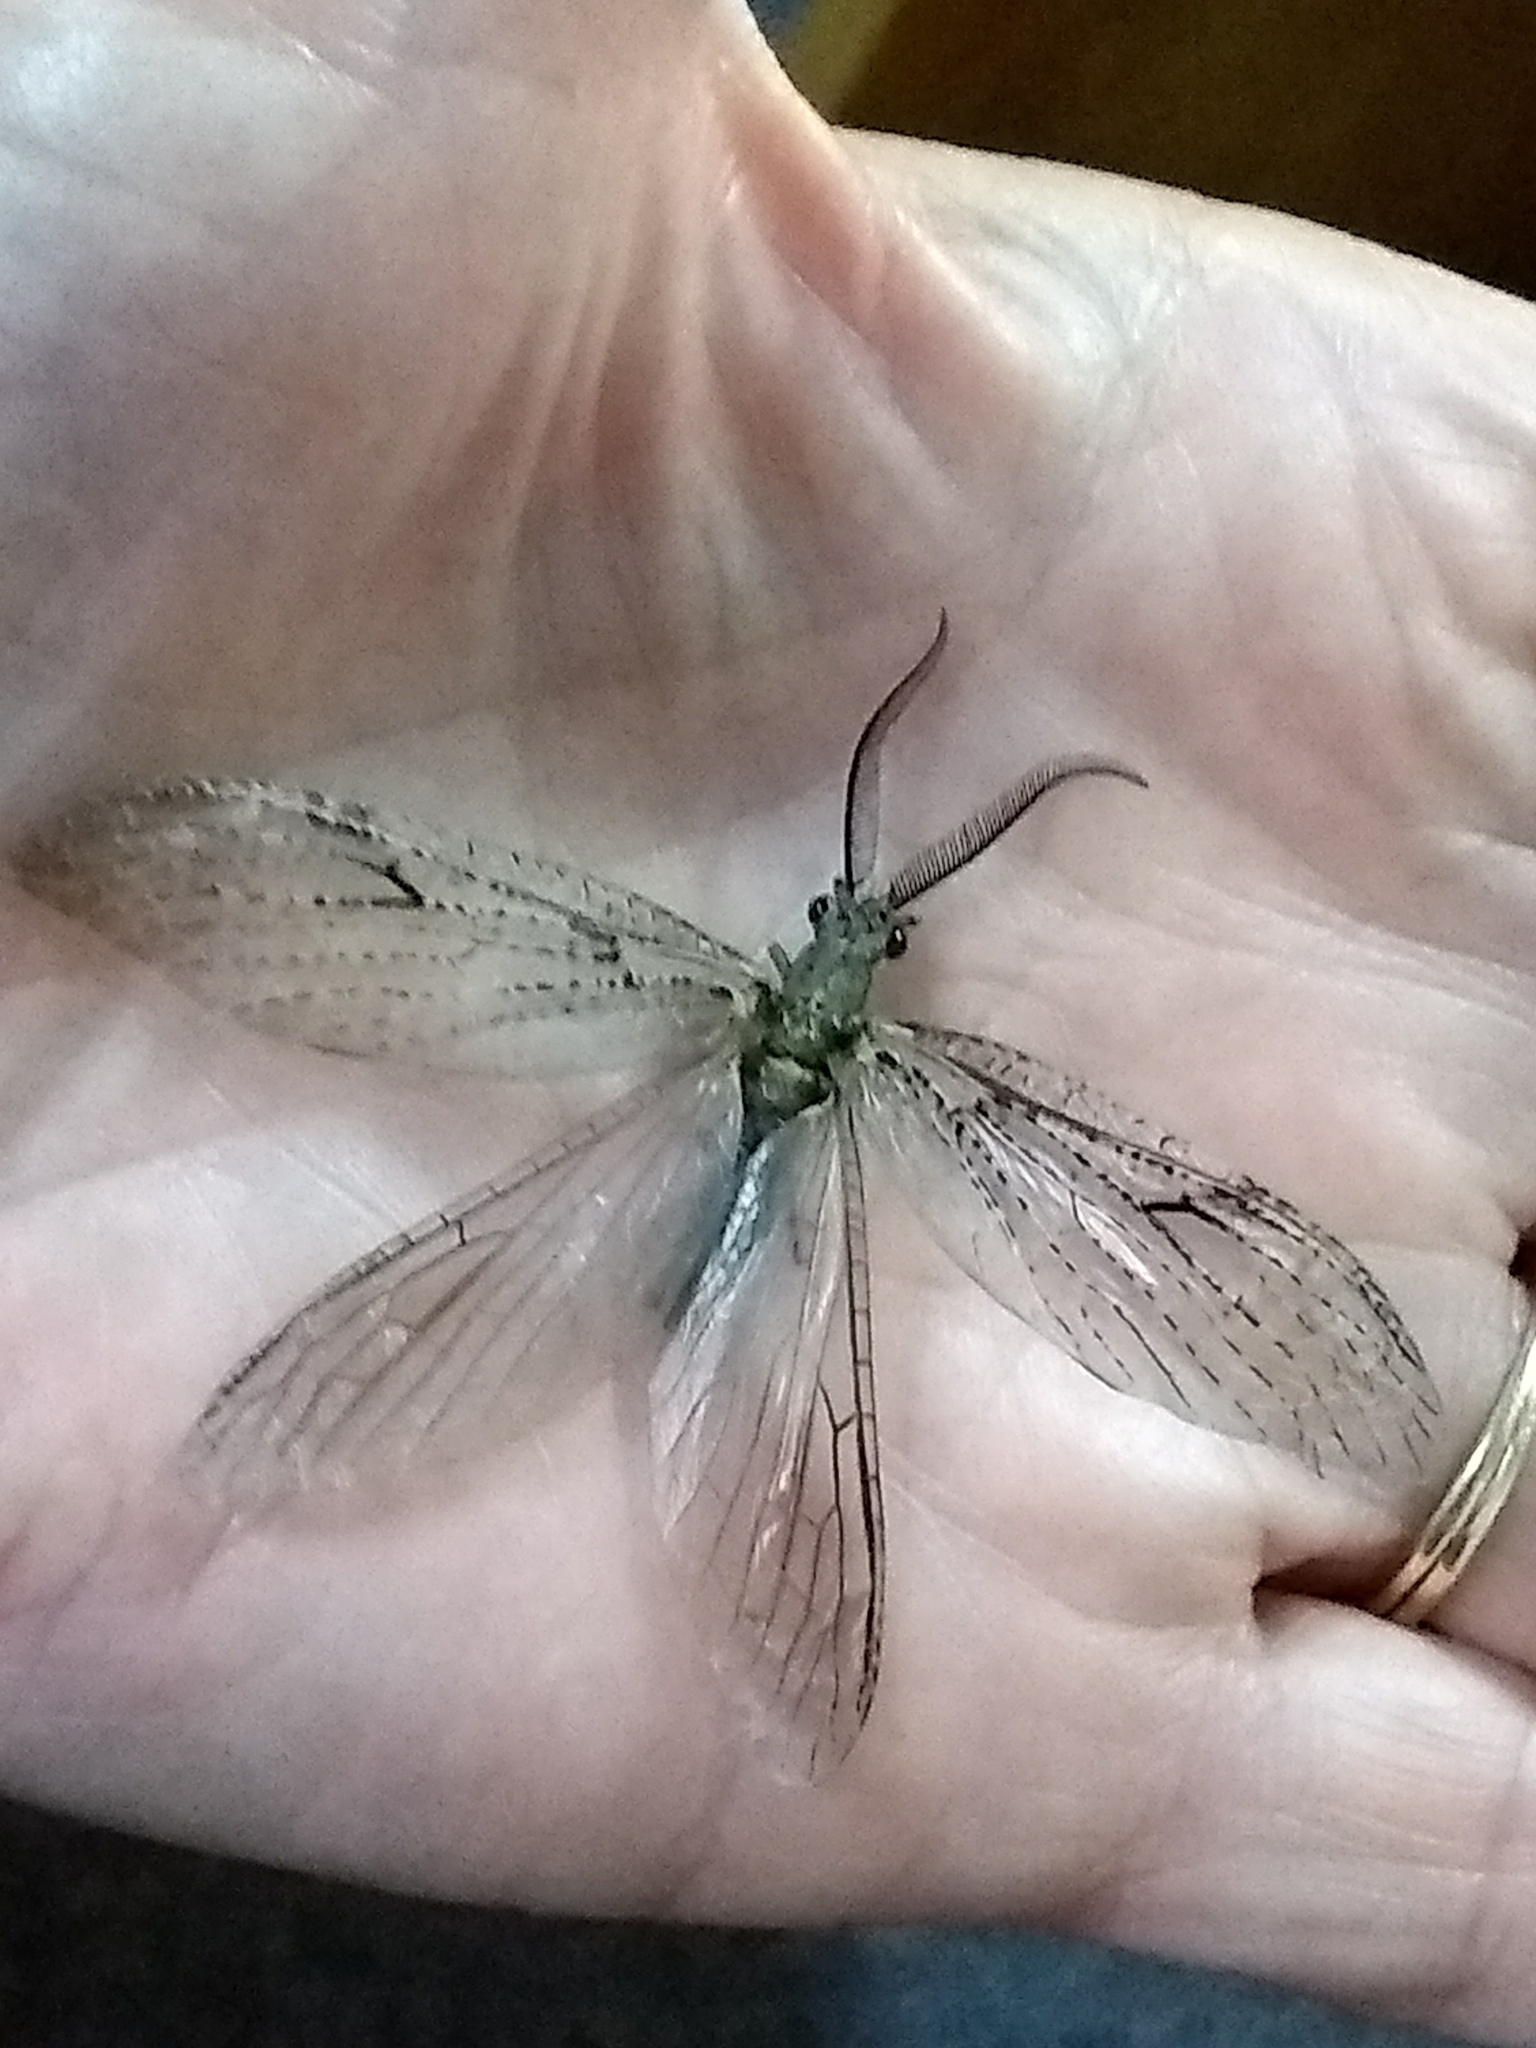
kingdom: Animalia
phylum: Arthropoda
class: Insecta
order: Megaloptera
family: Corydalidae
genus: Chauliodes
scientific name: Chauliodes rastricornis
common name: Spring fishfly
